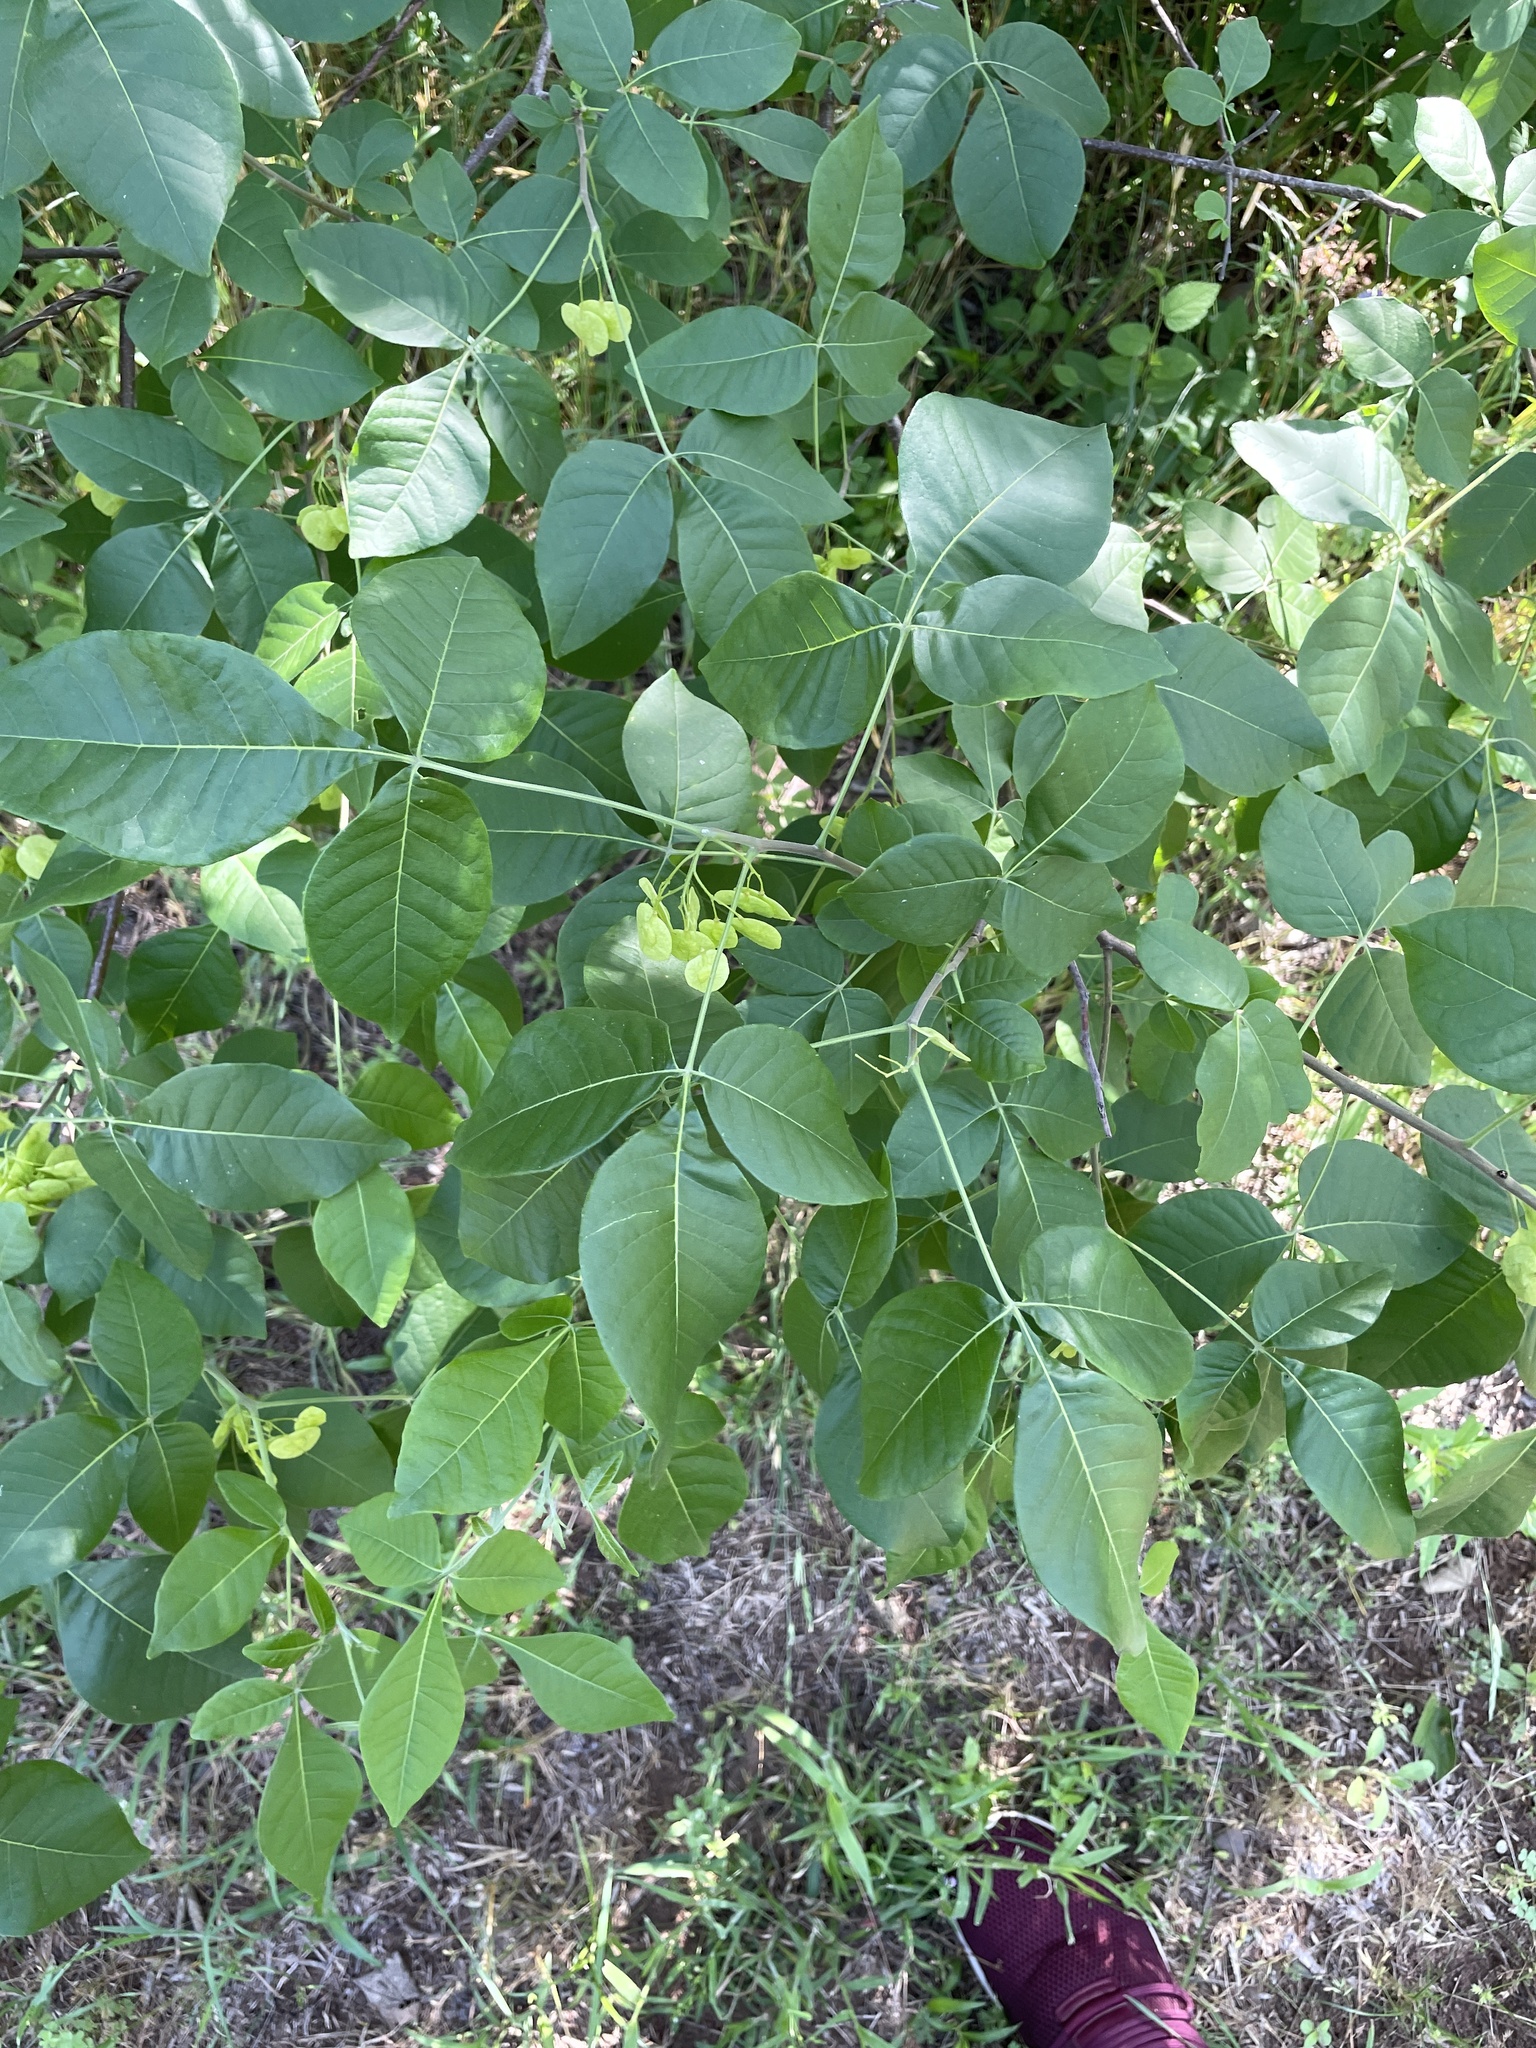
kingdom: Plantae
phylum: Tracheophyta
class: Magnoliopsida
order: Sapindales
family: Rutaceae
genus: Ptelea
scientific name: Ptelea trifoliata
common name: Common hop-tree
